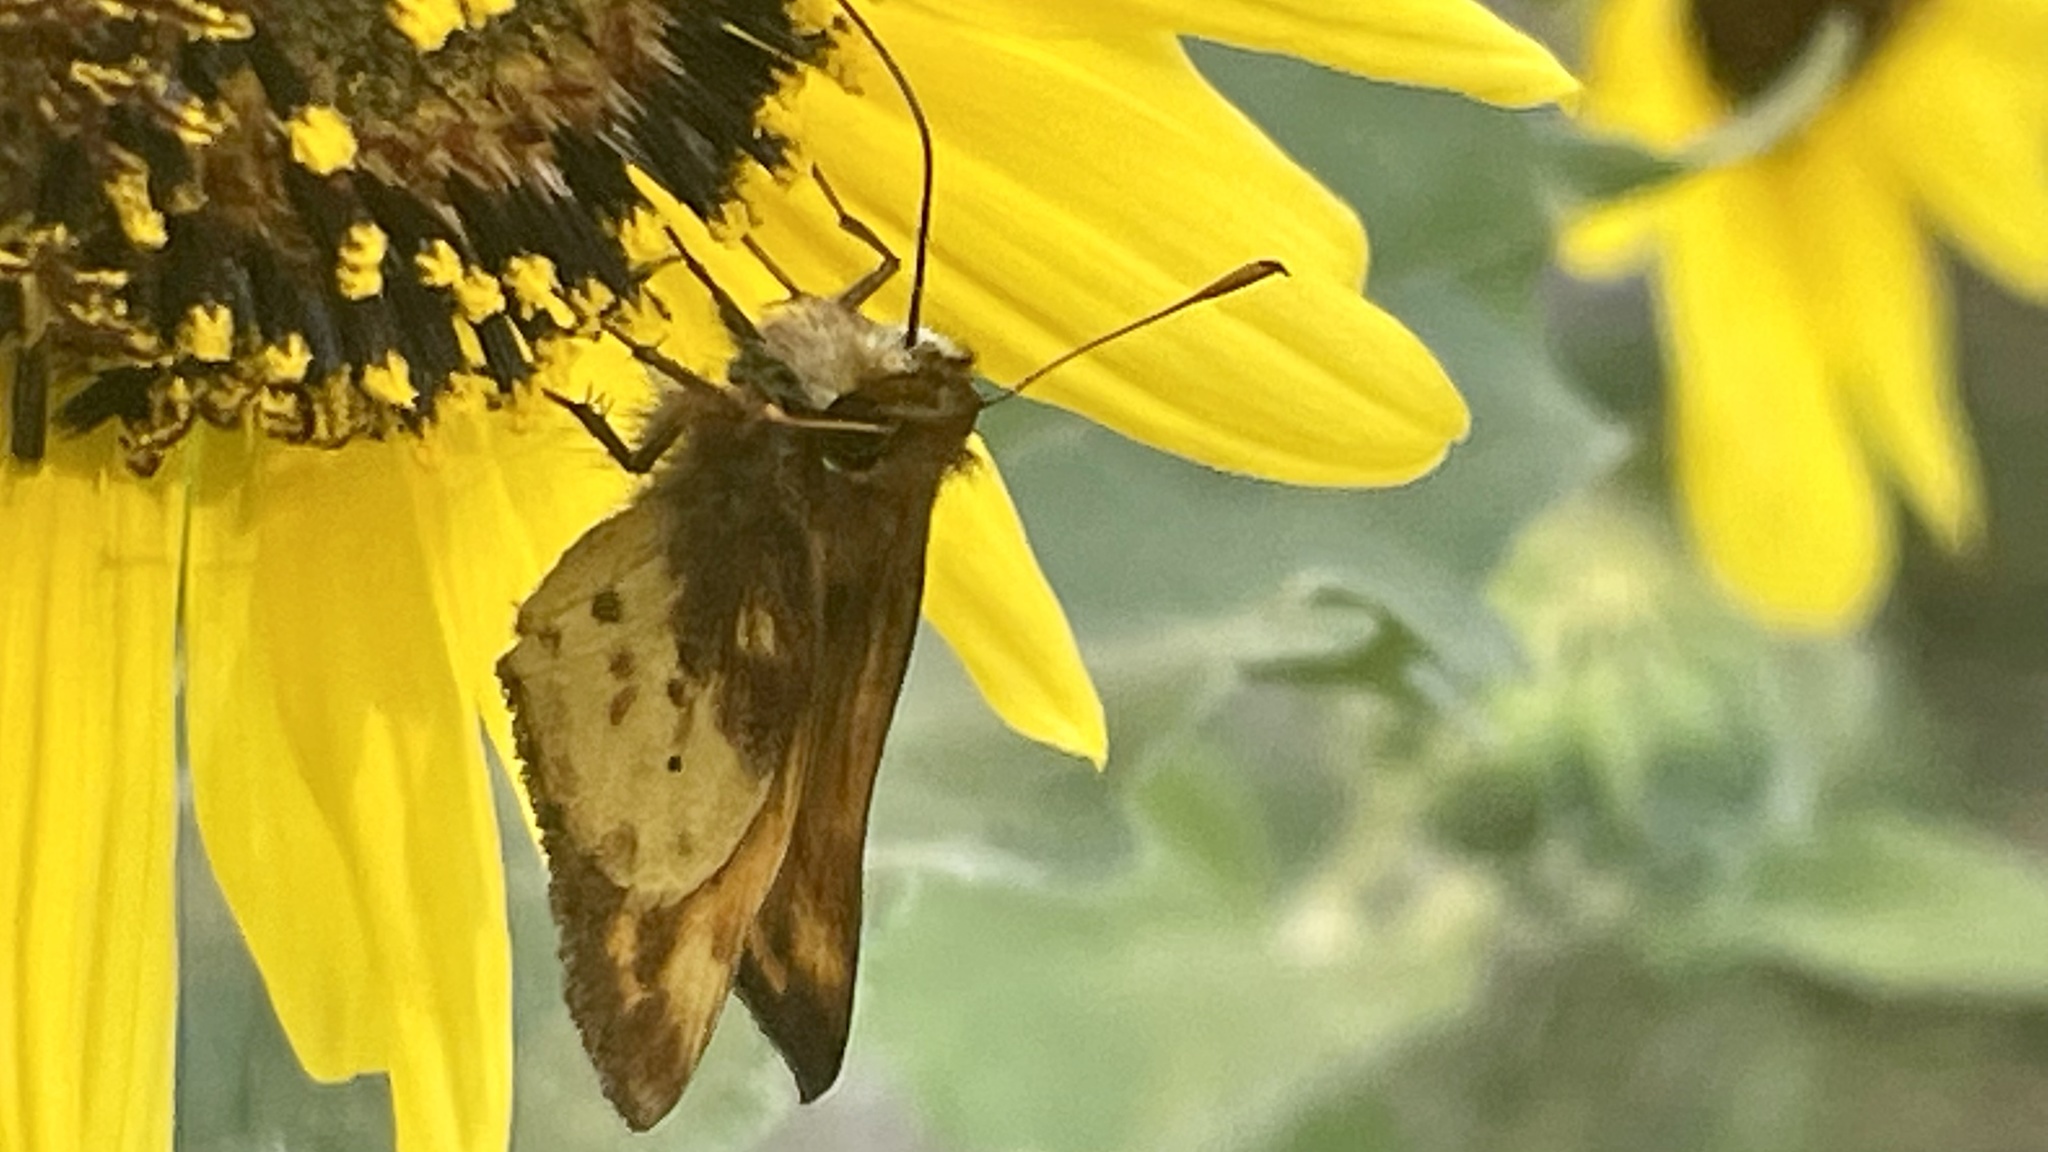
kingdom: Animalia
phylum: Arthropoda
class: Insecta
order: Lepidoptera
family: Hesperiidae
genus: Lon
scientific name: Lon zabulon
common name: Zabulon skipper
